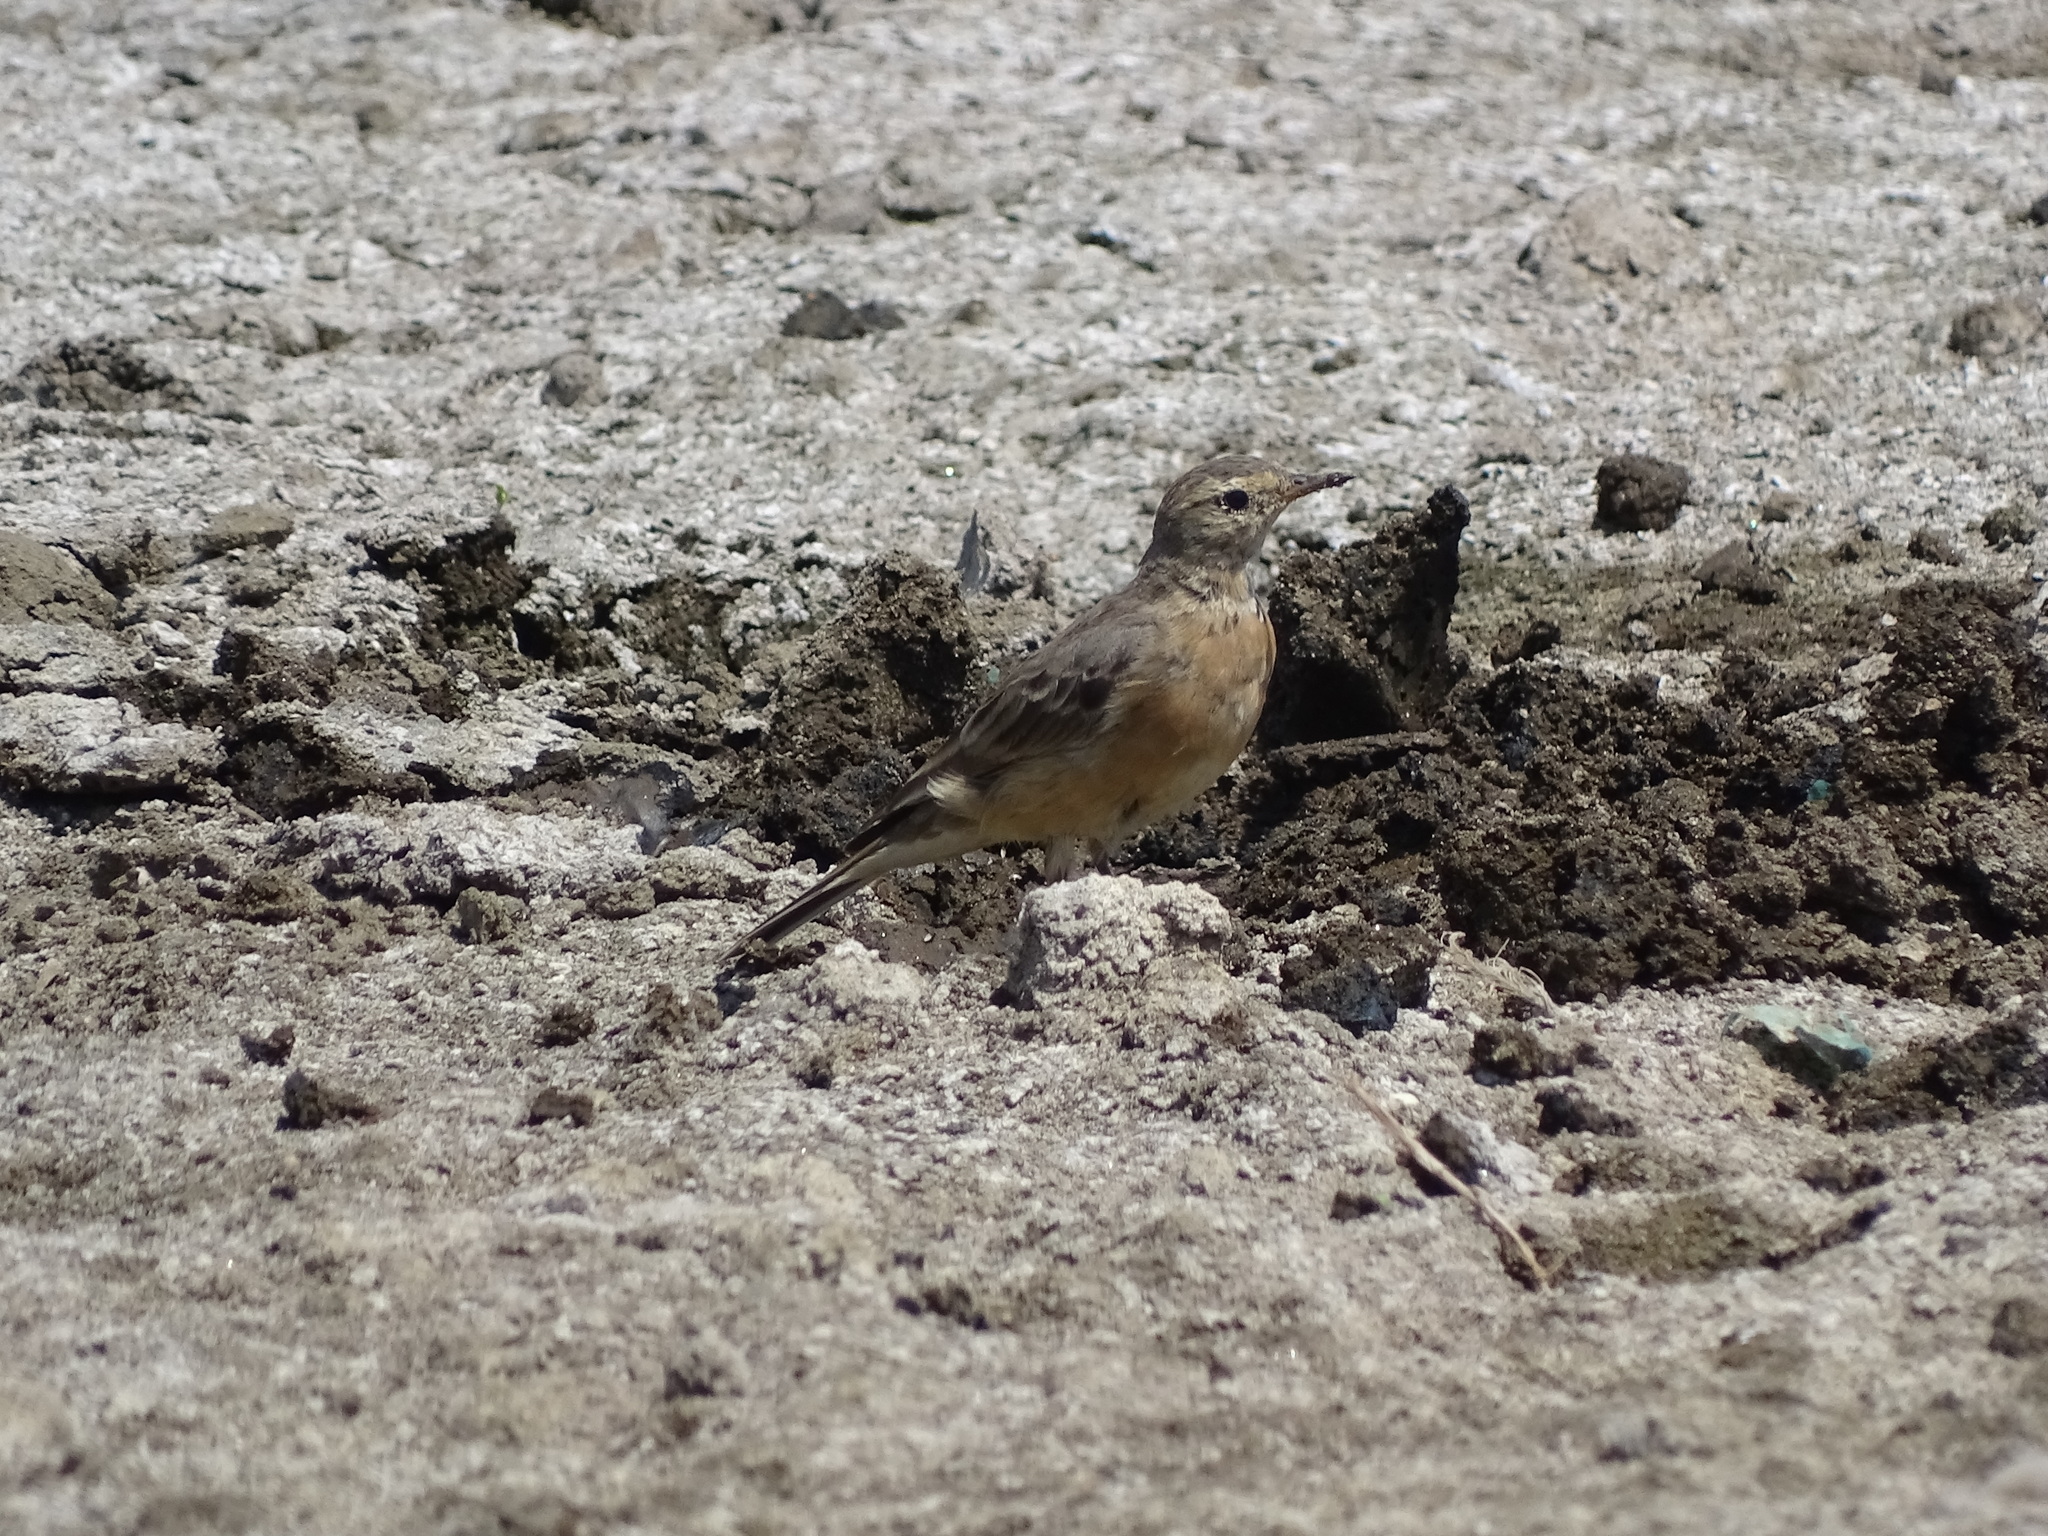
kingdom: Animalia
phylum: Chordata
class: Aves
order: Passeriformes
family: Motacillidae
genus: Anthus
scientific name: Anthus rubescens
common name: Buff-bellied pipit
